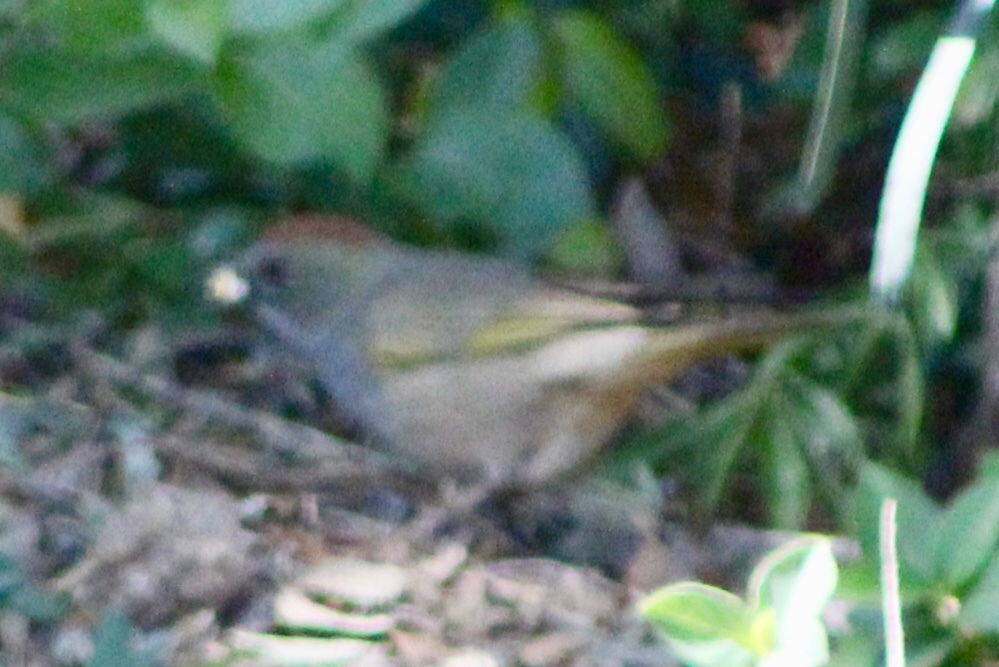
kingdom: Animalia
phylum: Chordata
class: Aves
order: Passeriformes
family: Passerellidae
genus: Pipilo
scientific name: Pipilo chlorurus
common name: Green-tailed towhee
